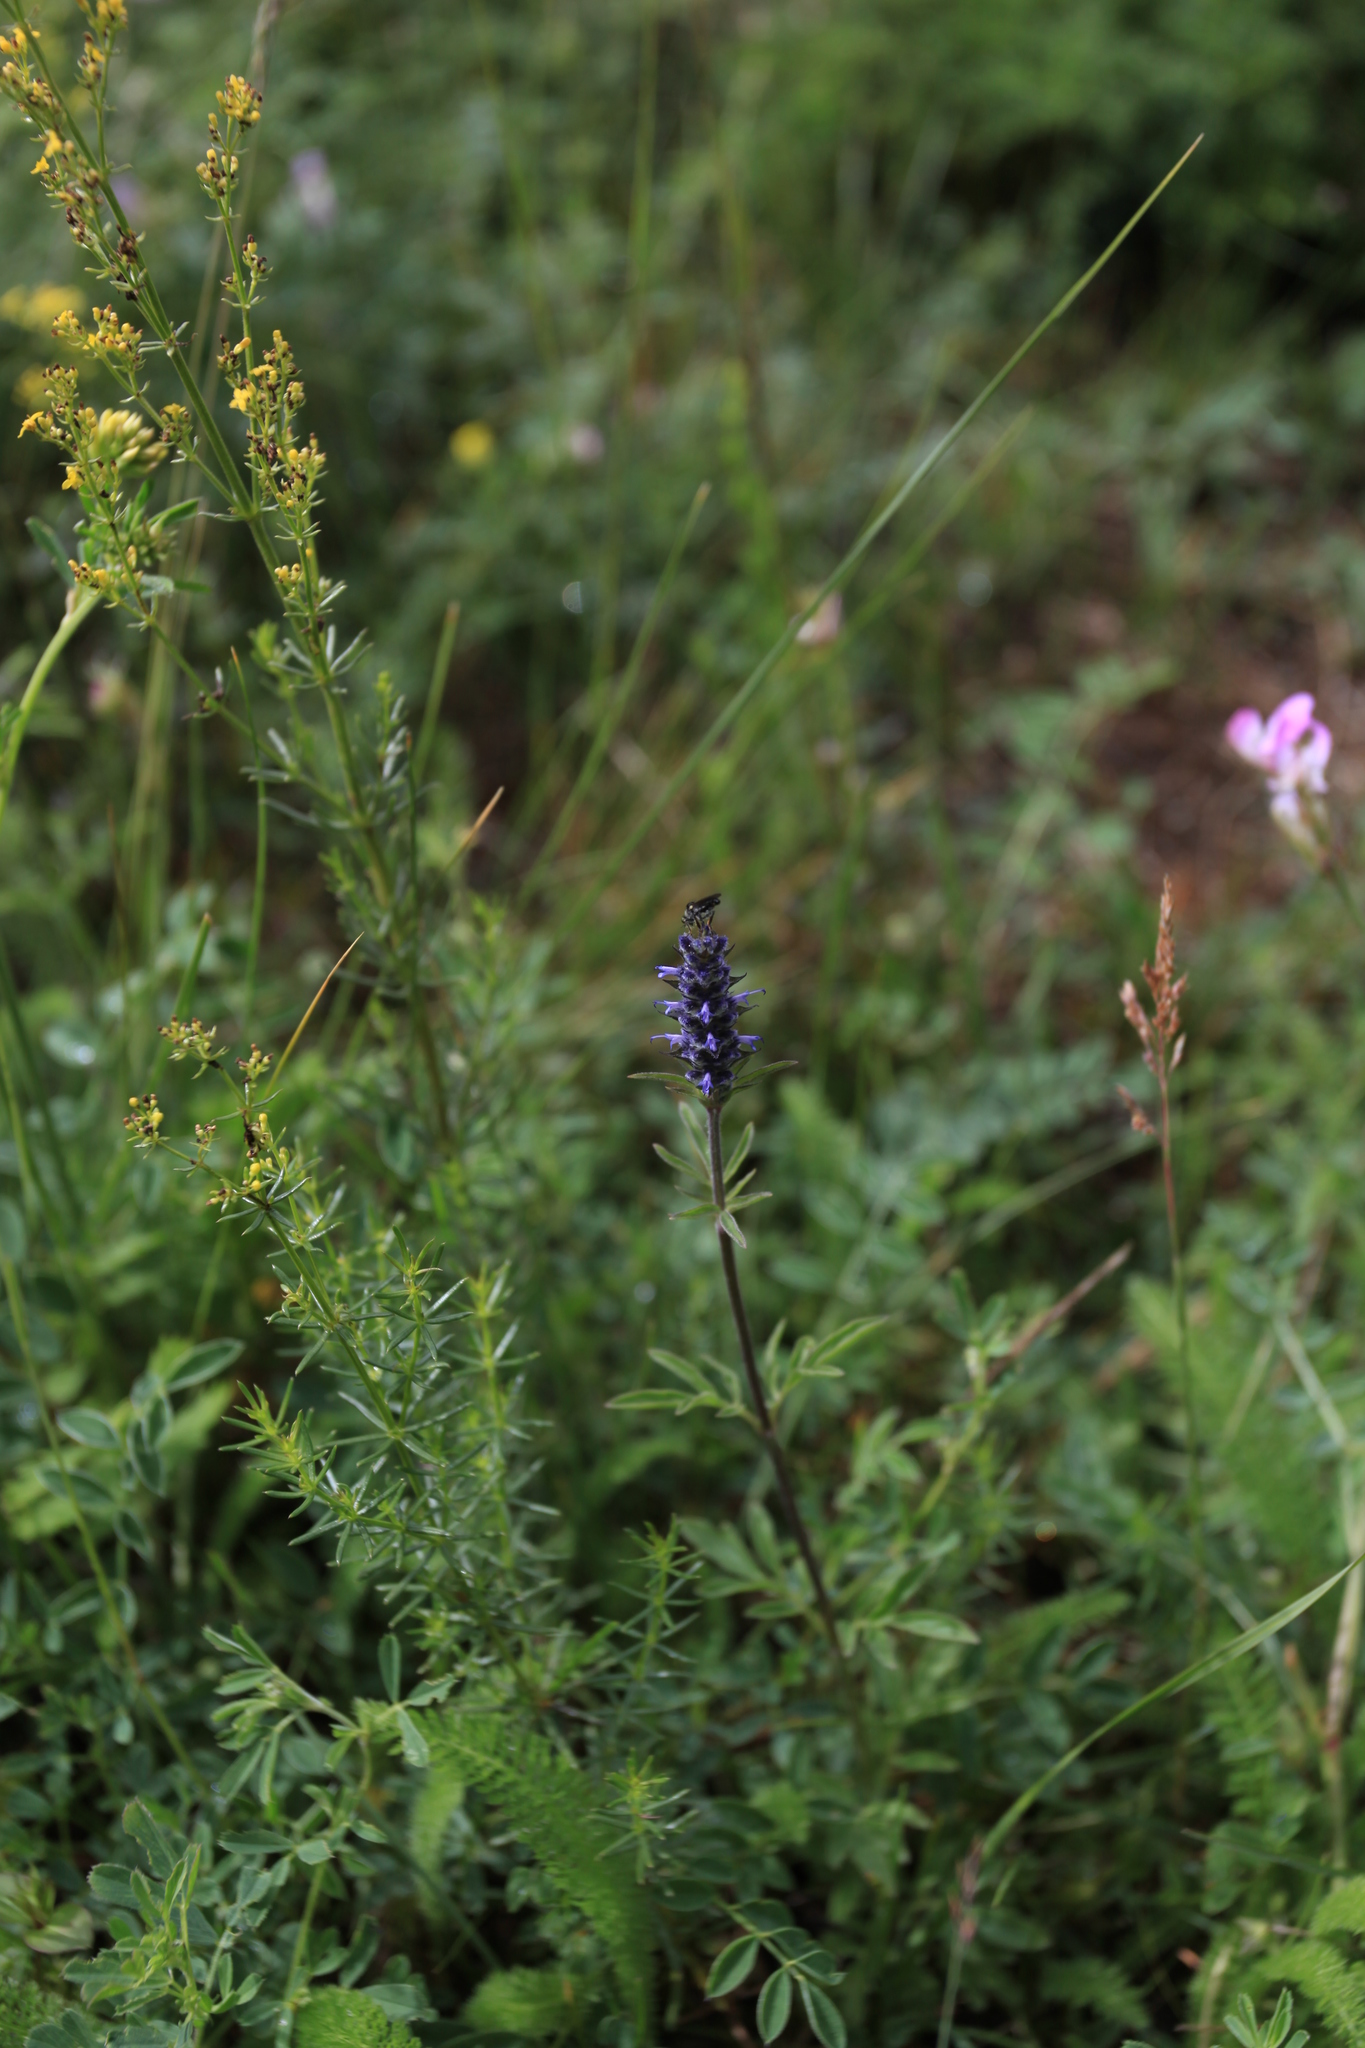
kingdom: Plantae
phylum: Tracheophyta
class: Magnoliopsida
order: Lamiales
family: Lamiaceae
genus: Nepeta
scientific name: Nepeta multifida
